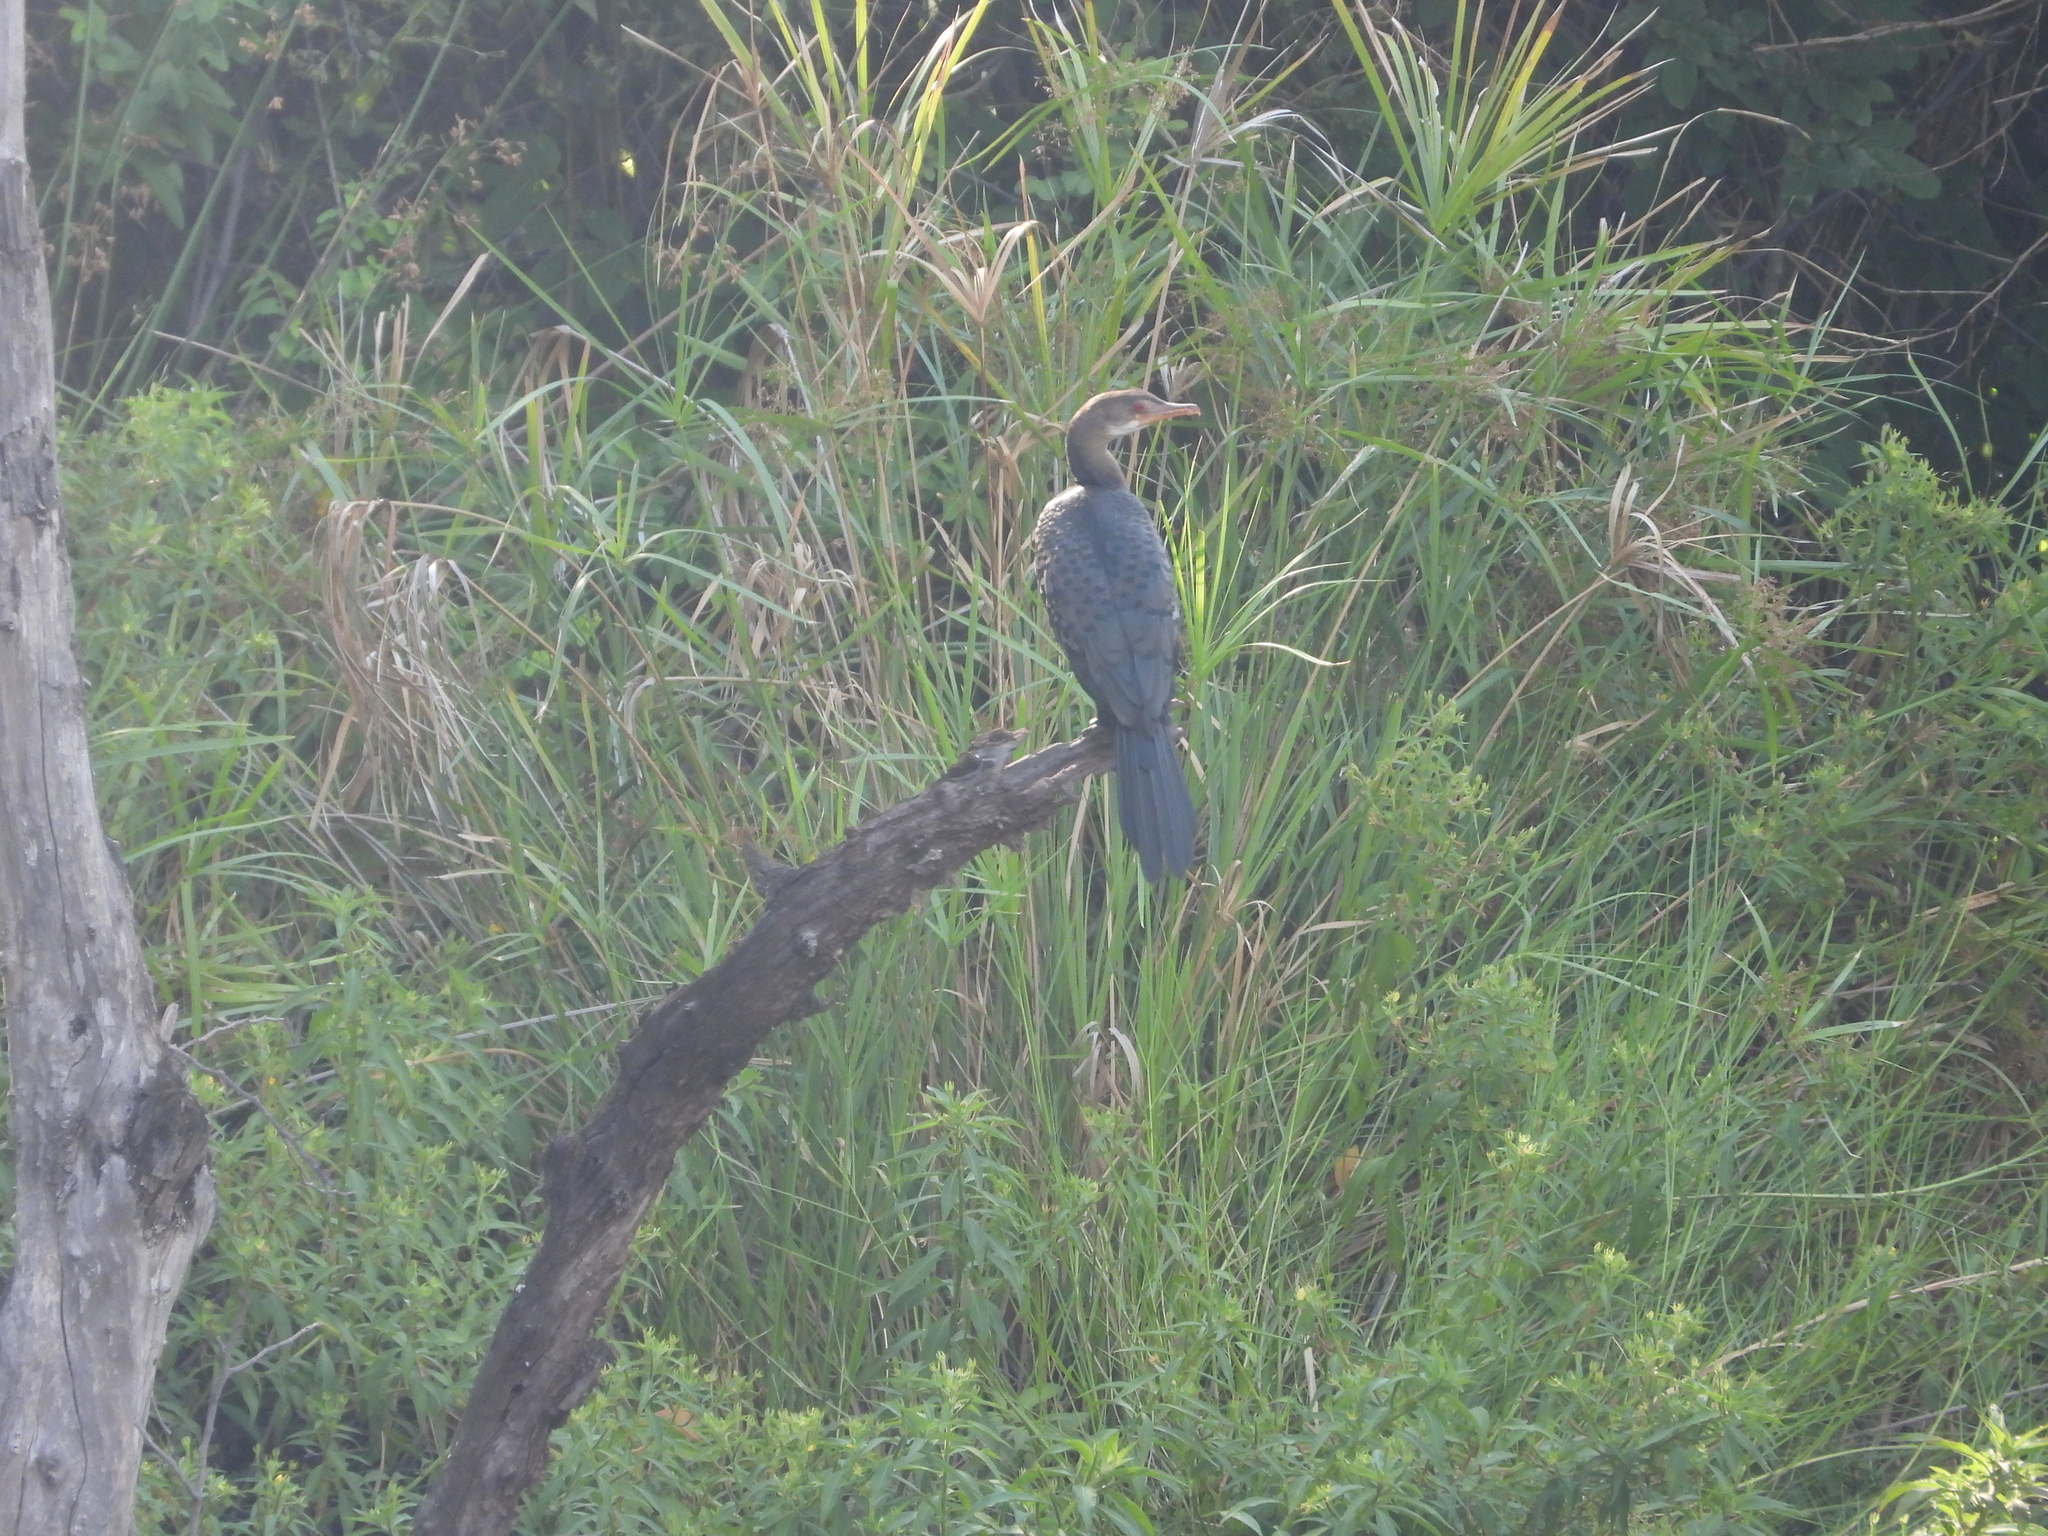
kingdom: Animalia
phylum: Chordata
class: Aves
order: Suliformes
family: Phalacrocoracidae
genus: Microcarbo
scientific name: Microcarbo africanus
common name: Long-tailed cormorant
